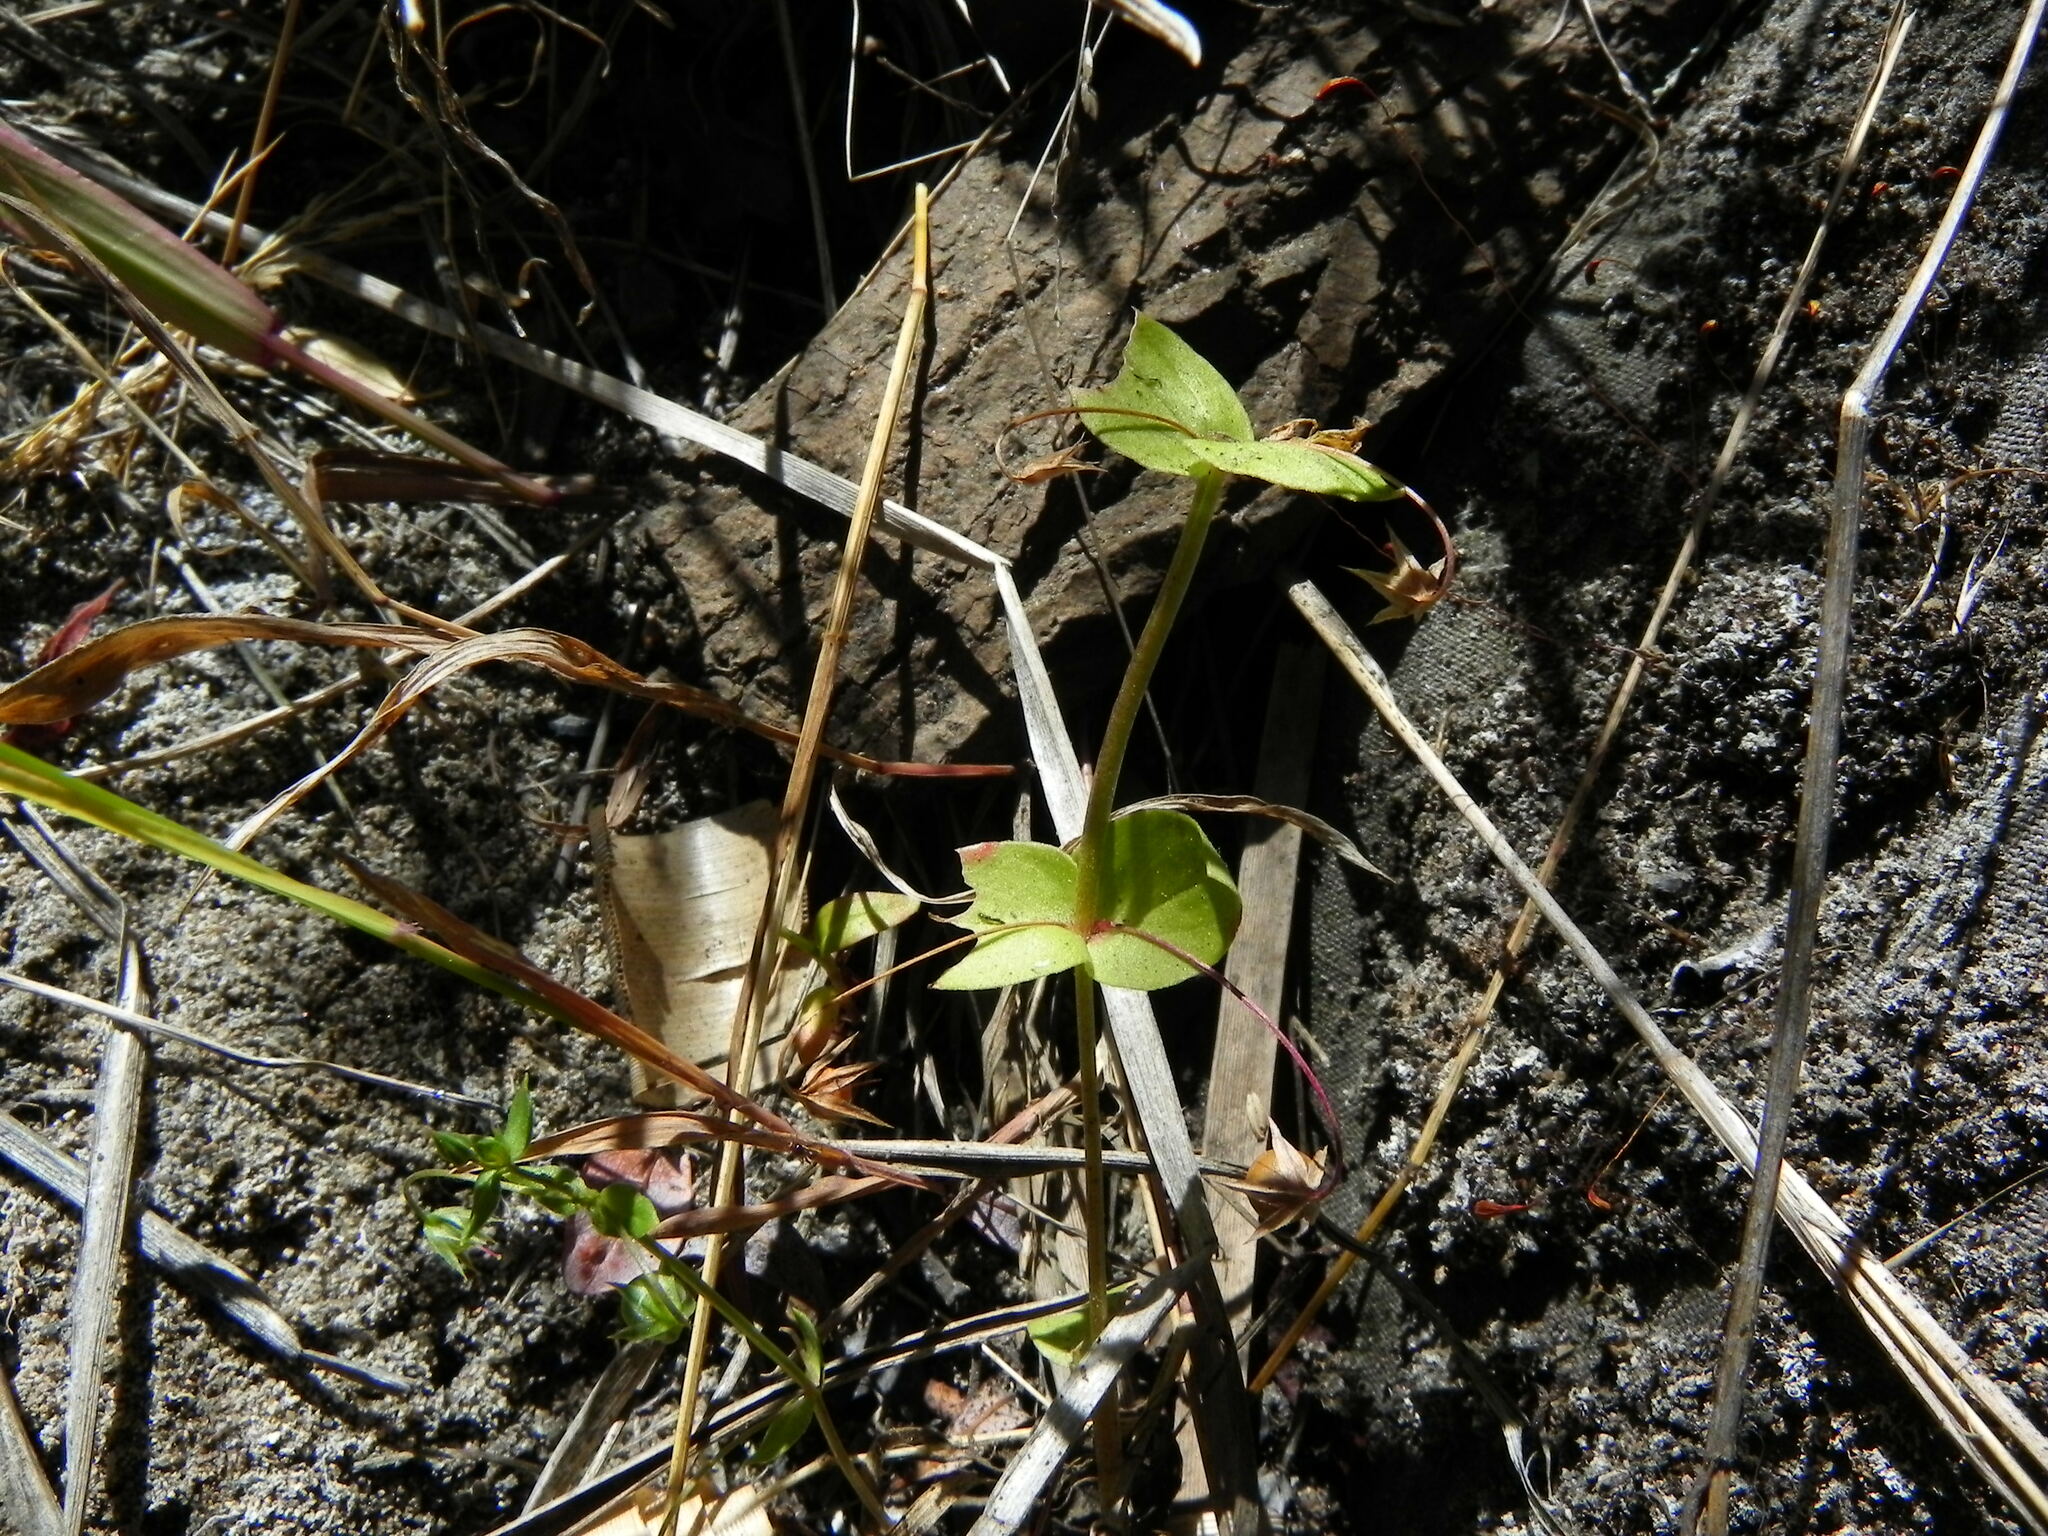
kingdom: Plantae
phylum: Tracheophyta
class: Magnoliopsida
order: Ericales
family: Primulaceae
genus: Lysimachia
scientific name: Lysimachia arvensis
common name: Scarlet pimpernel
